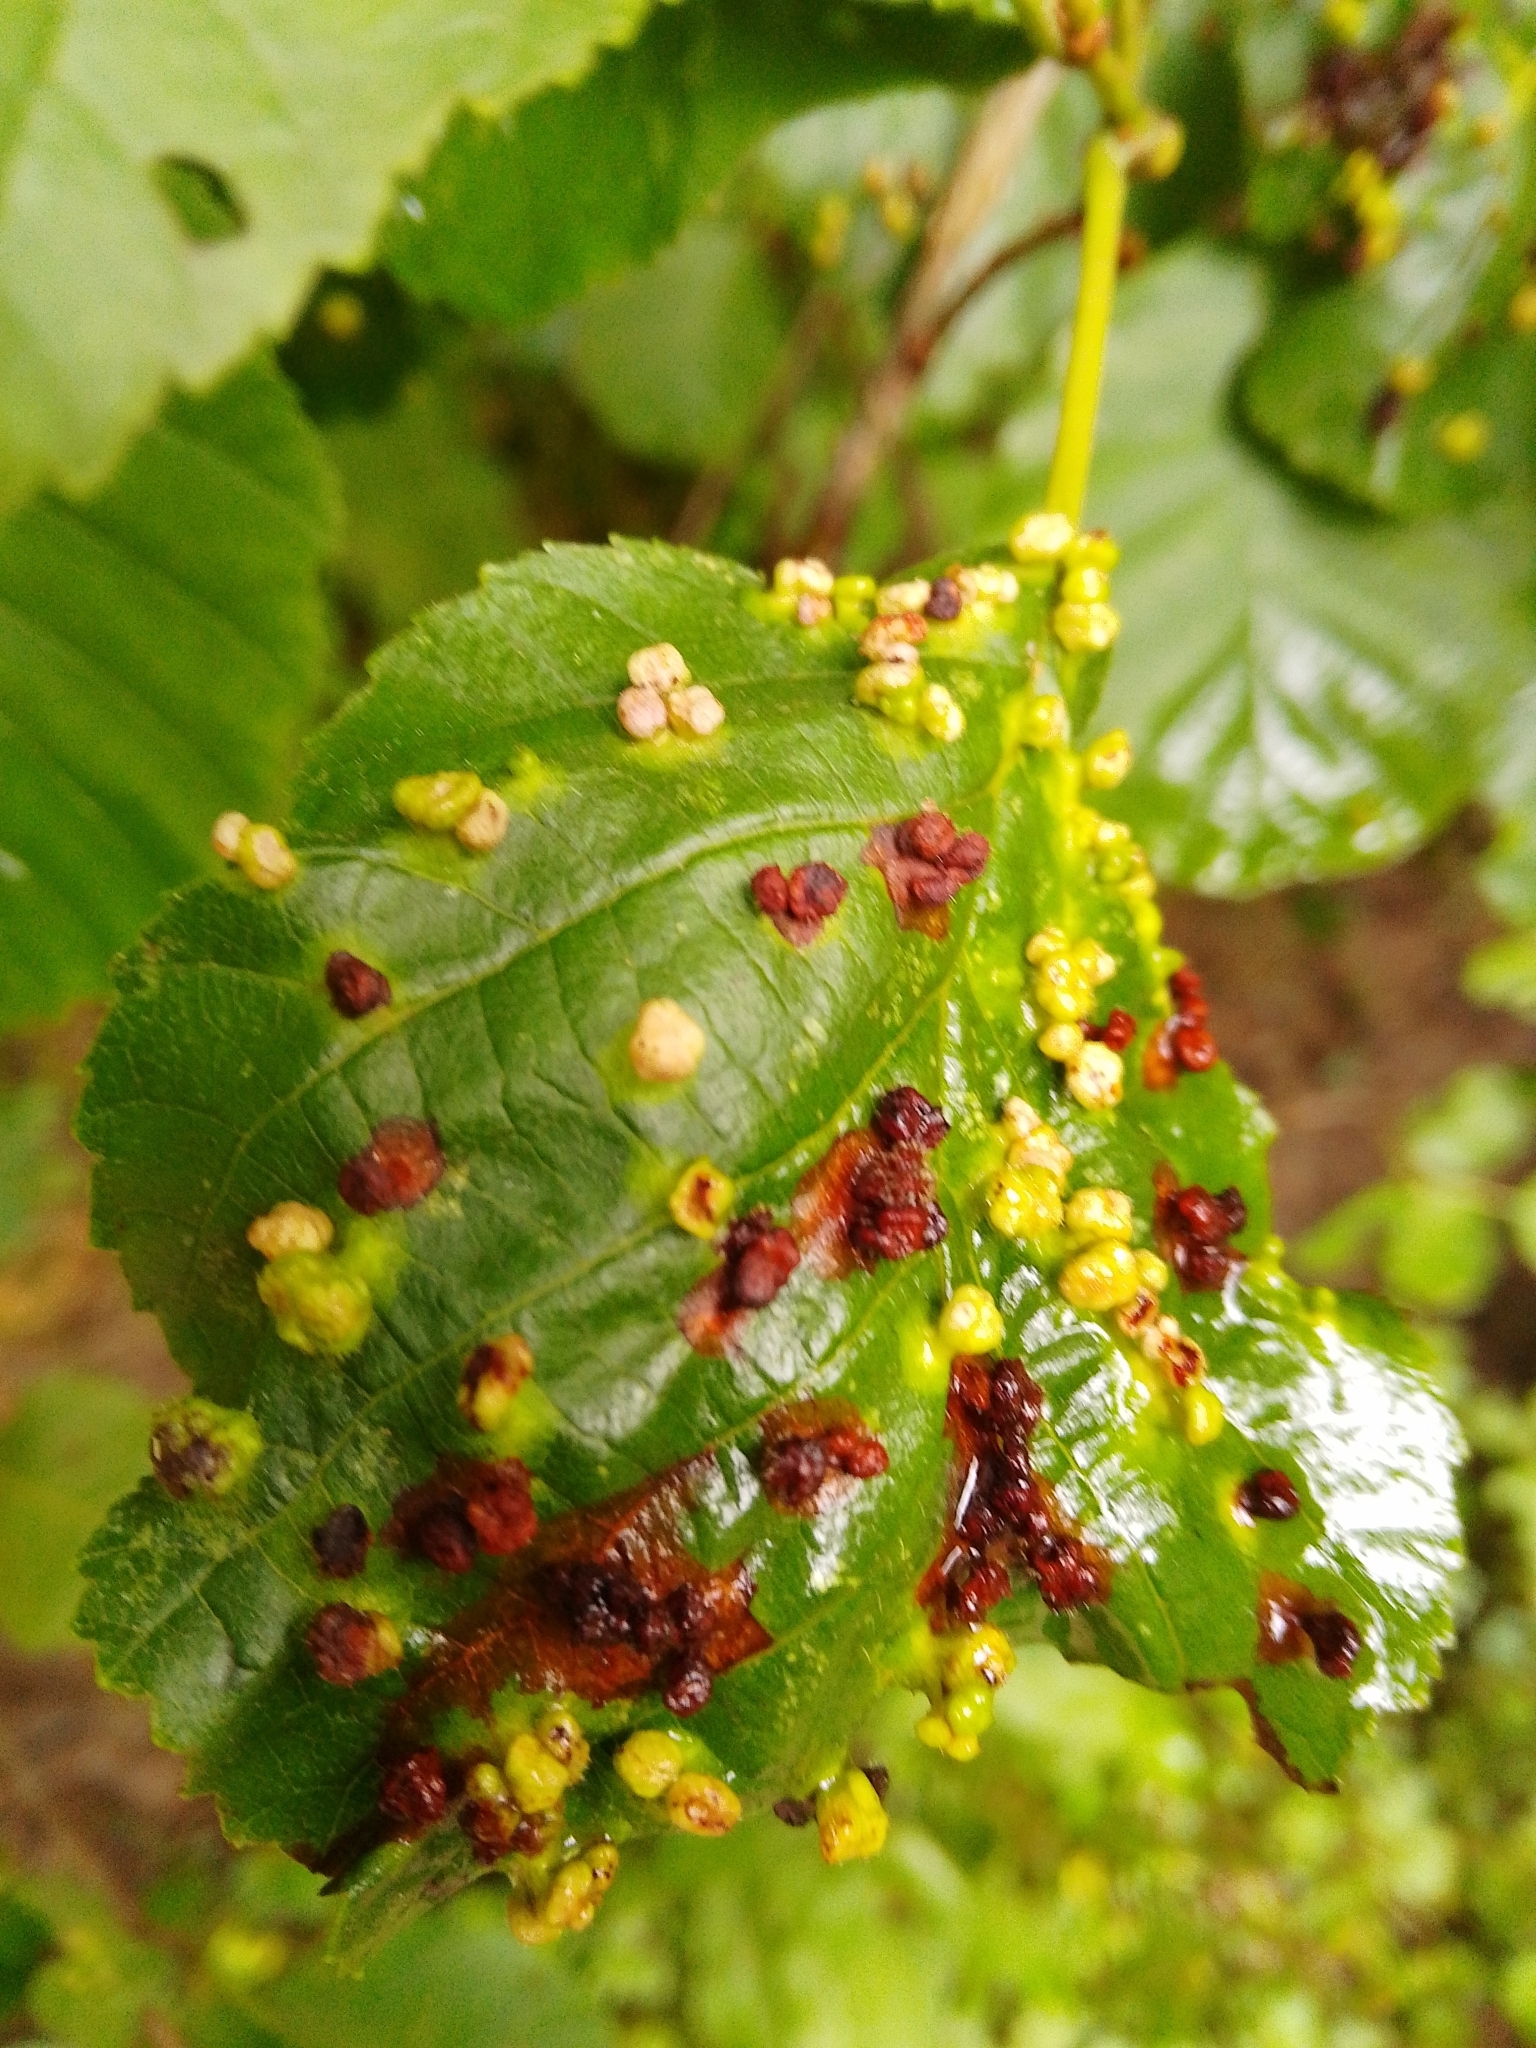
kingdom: Animalia
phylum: Arthropoda
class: Arachnida
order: Trombidiformes
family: Eriophyidae
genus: Eriophyes
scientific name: Eriophyes laevis
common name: Alder leaf gall mite
